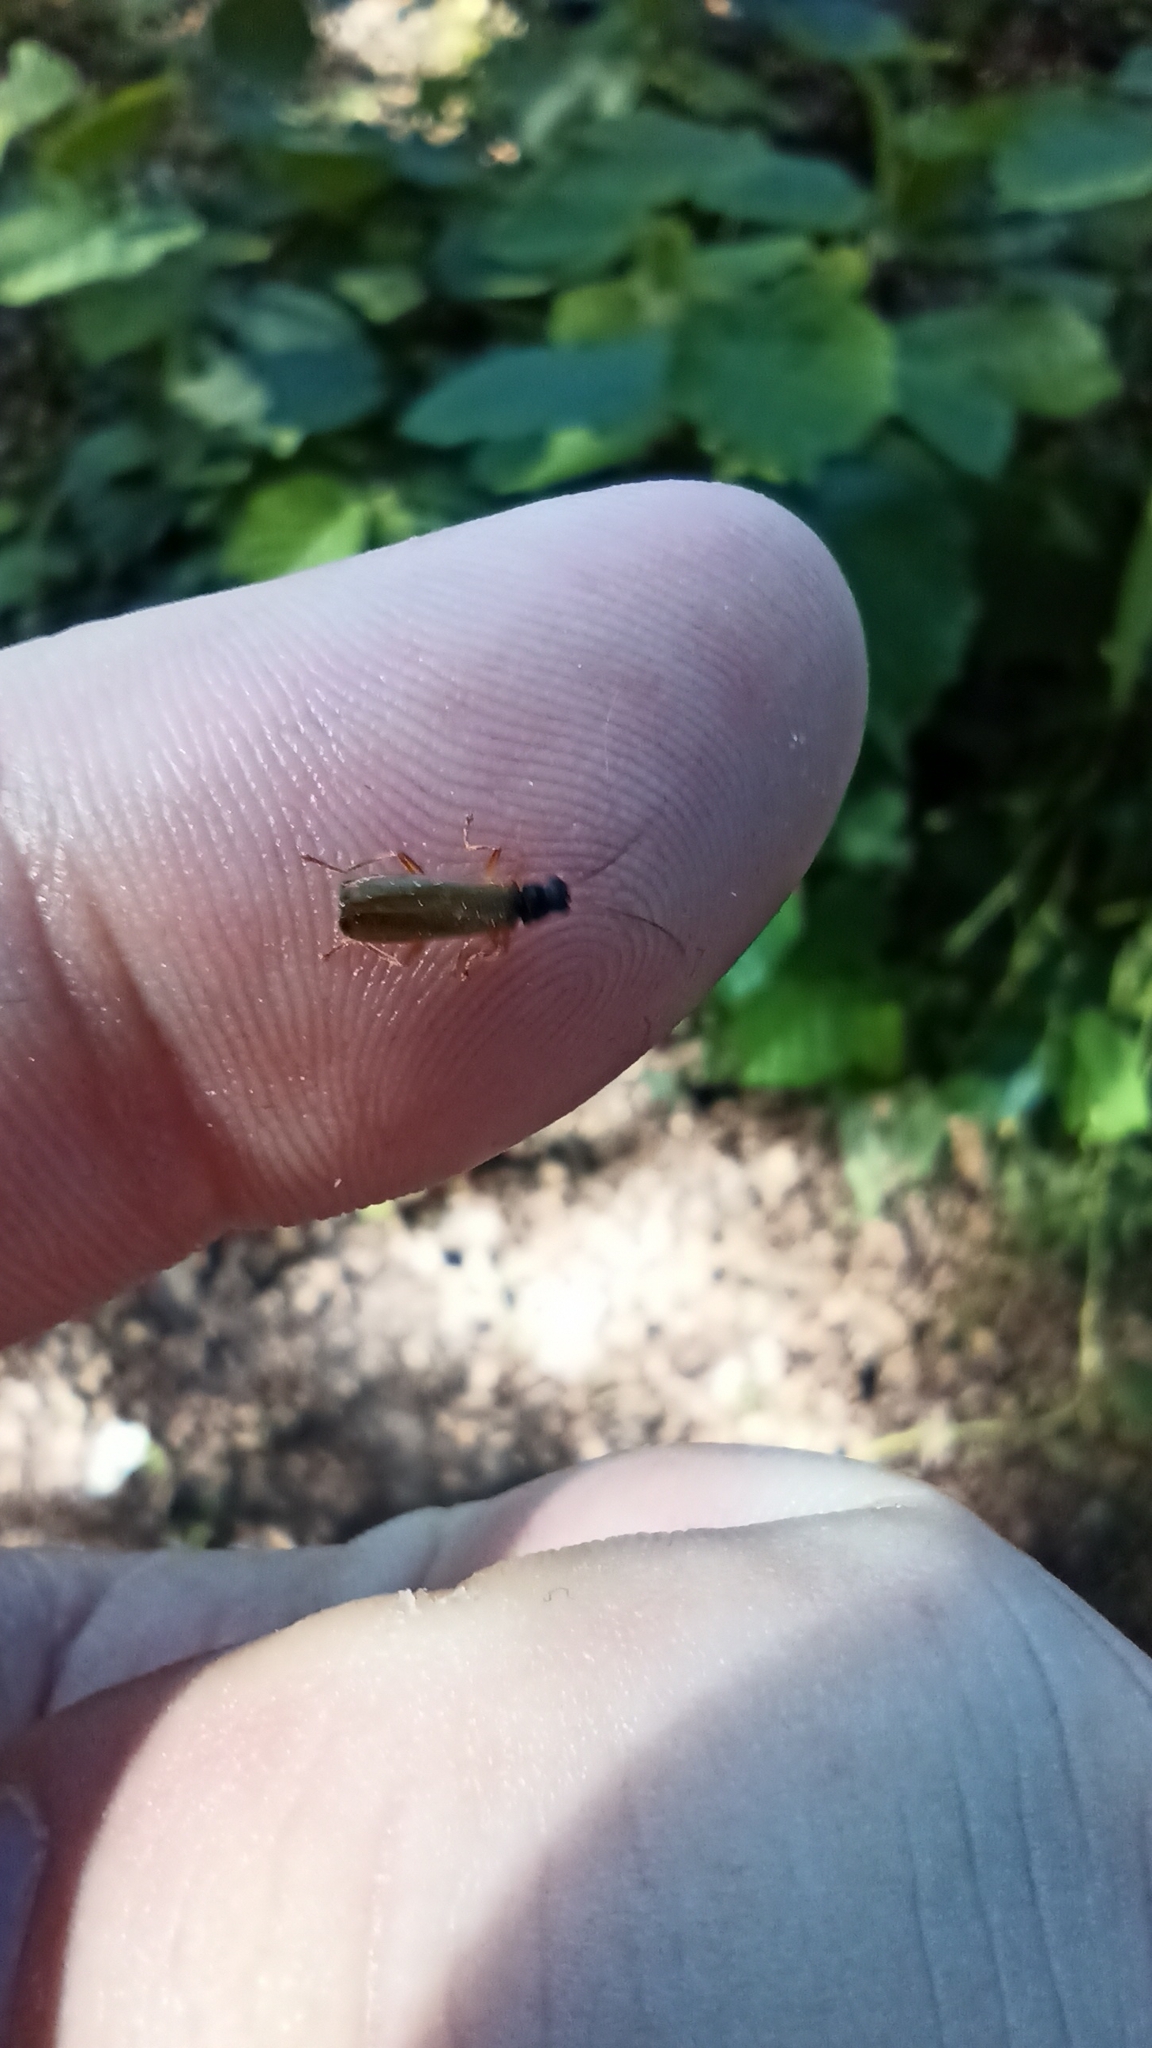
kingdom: Animalia
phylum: Arthropoda
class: Insecta
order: Coleoptera
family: Cantharidae
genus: Rhagonycha
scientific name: Rhagonycha lignosa
